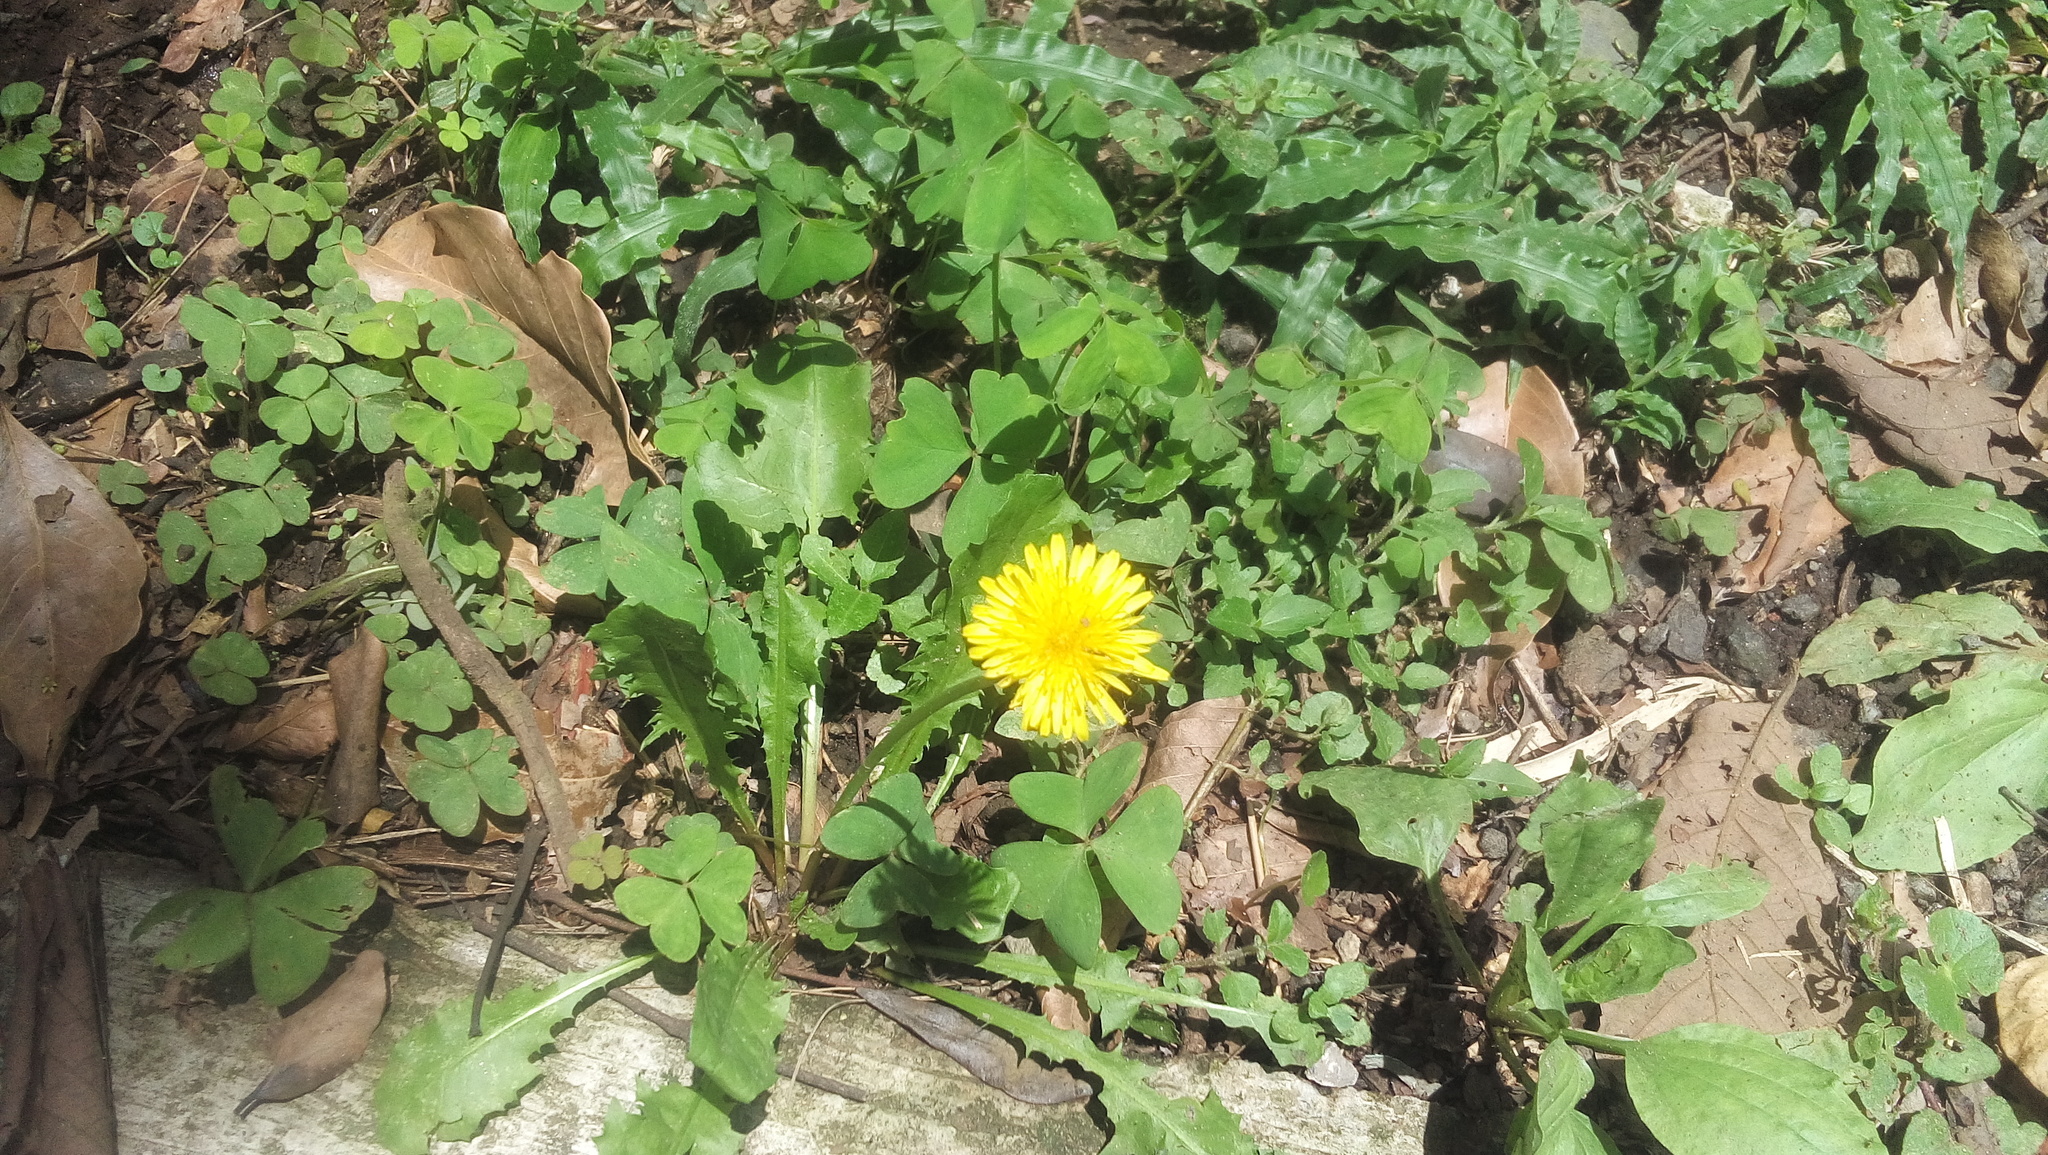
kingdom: Plantae
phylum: Tracheophyta
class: Magnoliopsida
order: Asterales
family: Asteraceae
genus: Taraxacum
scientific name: Taraxacum officinale
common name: Common dandelion
